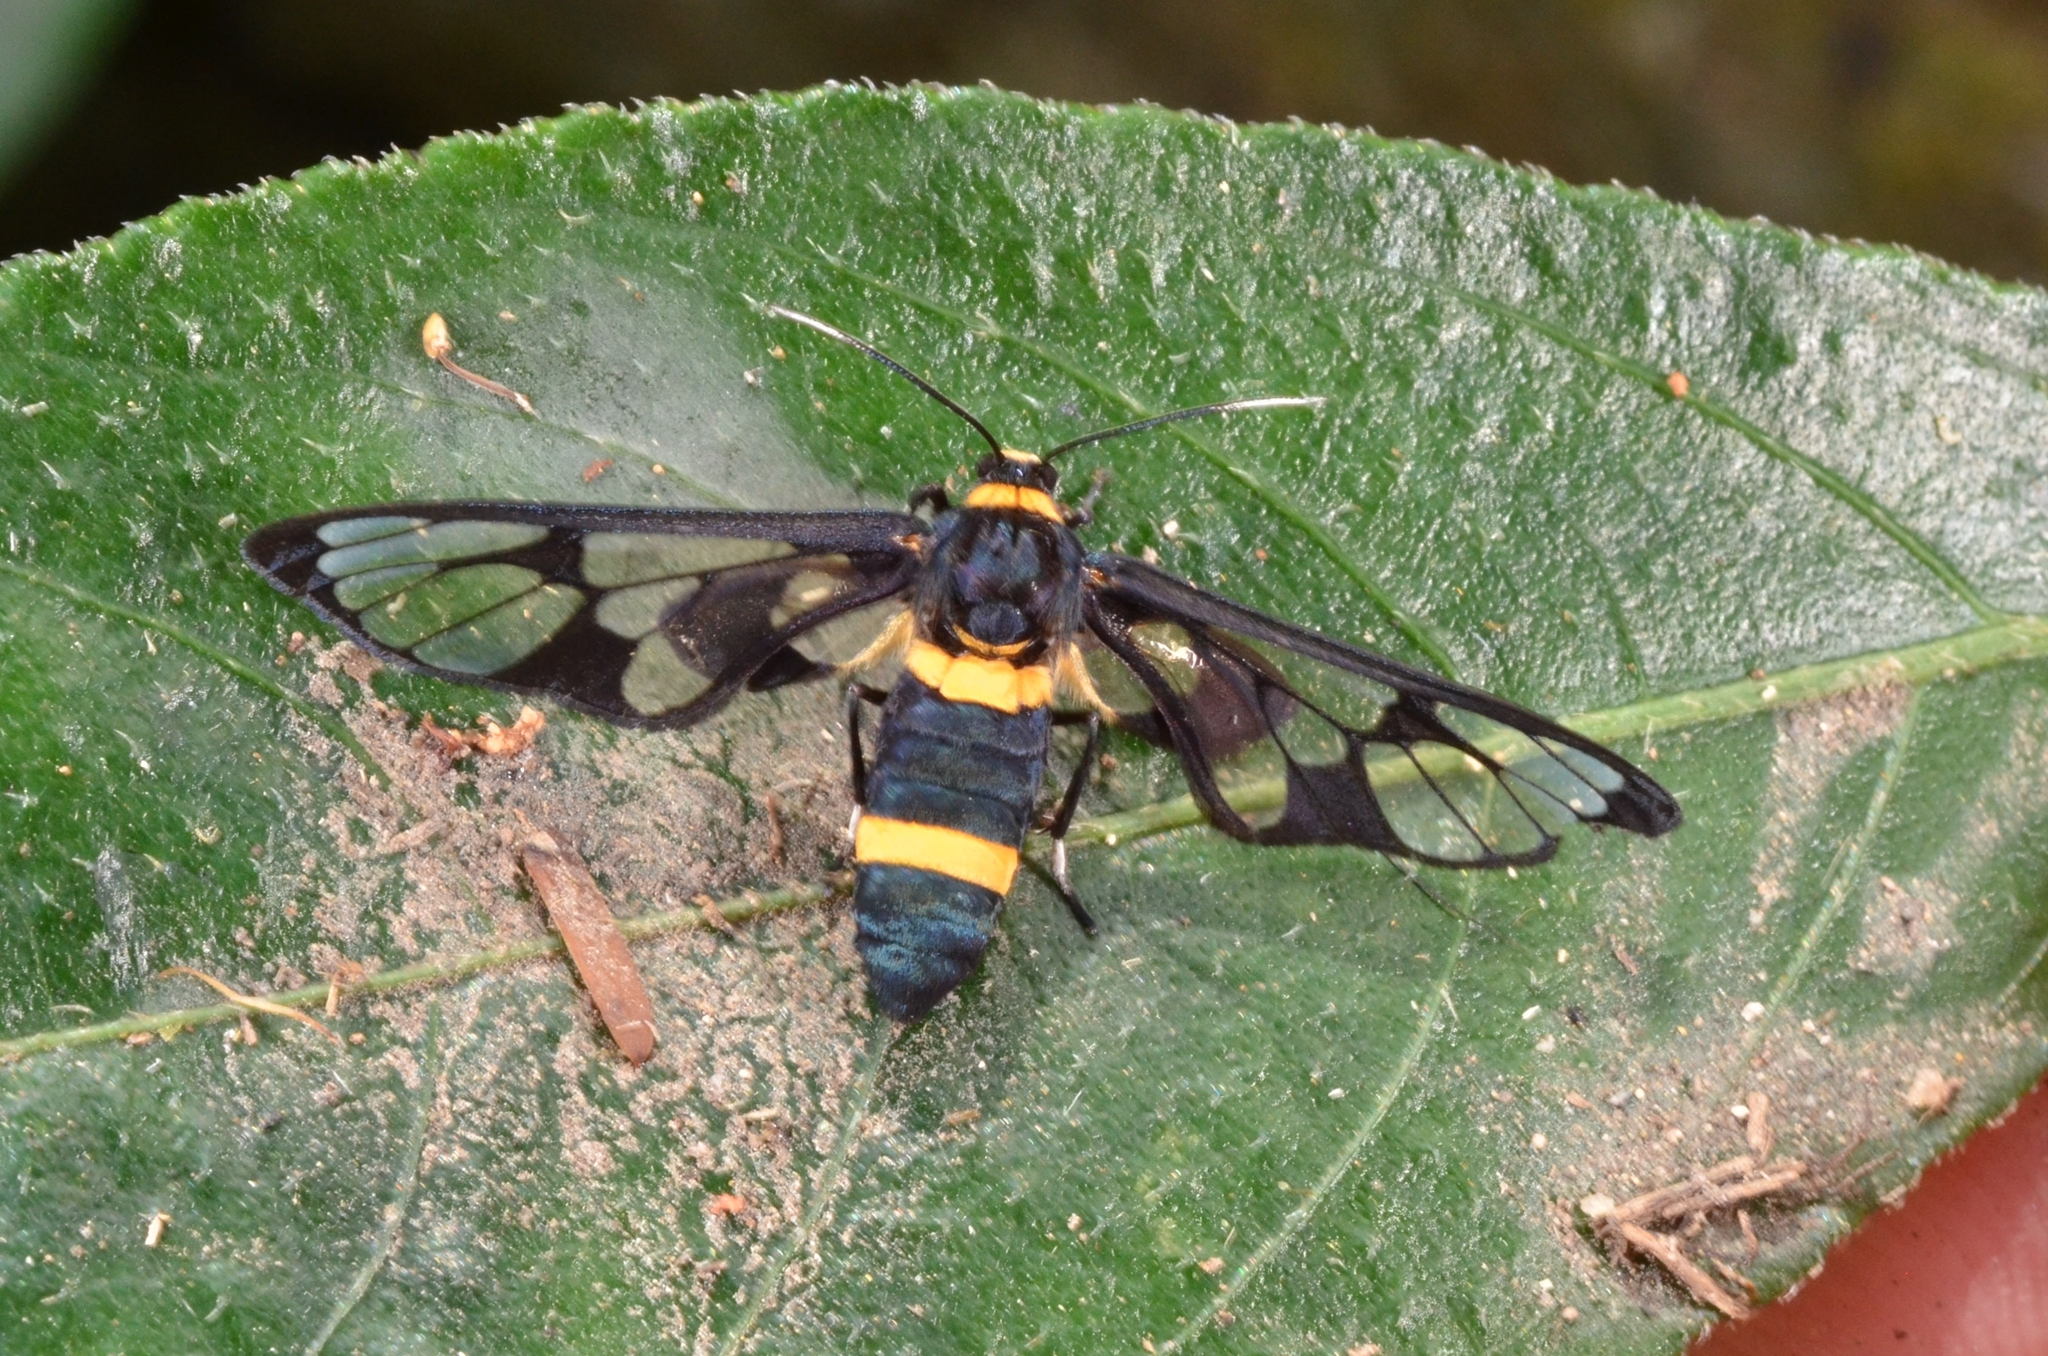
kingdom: Animalia
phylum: Arthropoda
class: Insecta
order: Lepidoptera
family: Erebidae
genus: Syntomoides
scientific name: Syntomoides imaon
